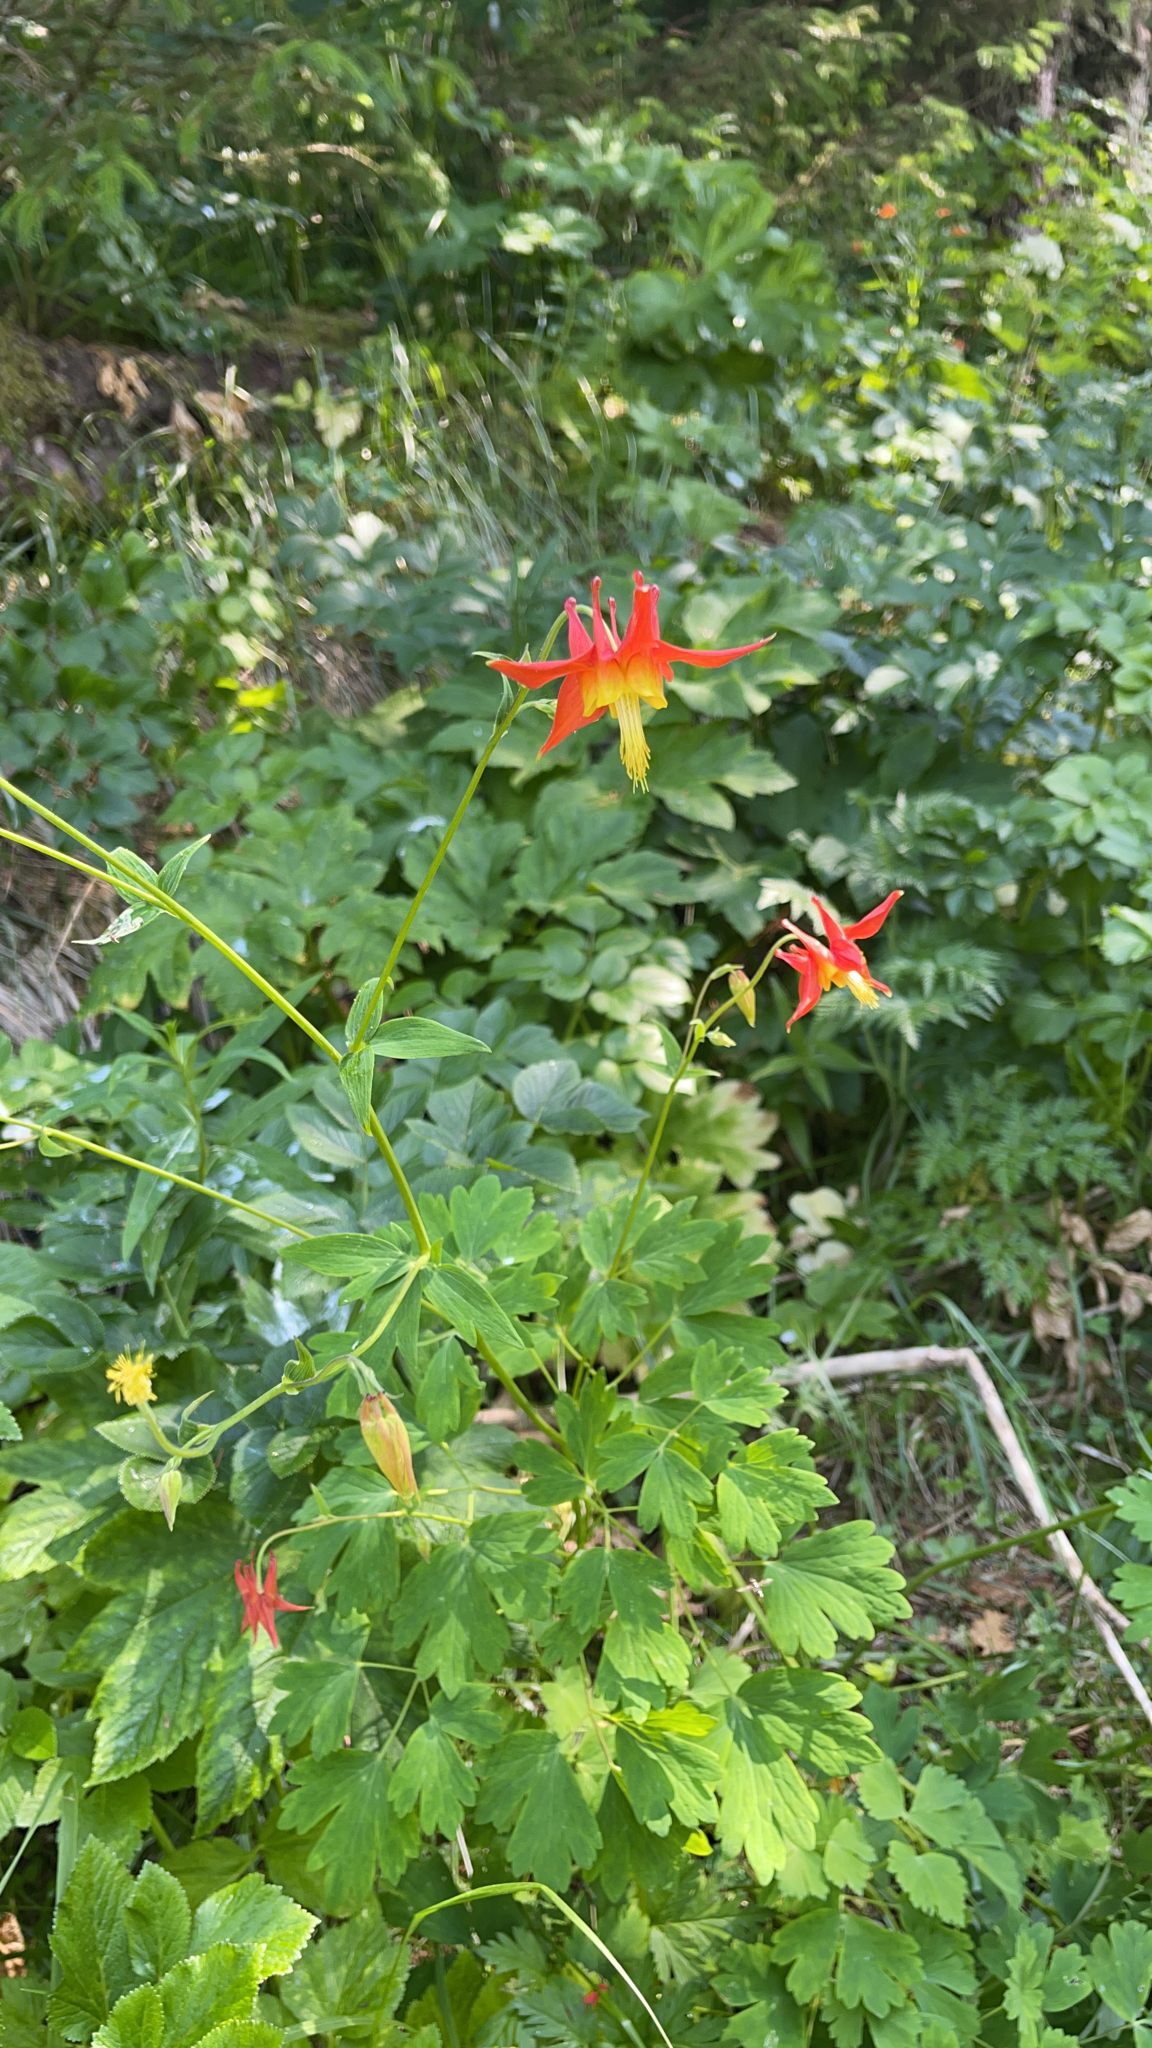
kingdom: Plantae
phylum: Tracheophyta
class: Magnoliopsida
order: Ranunculales
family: Ranunculaceae
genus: Aquilegia
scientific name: Aquilegia formosa
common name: Sitka columbine
